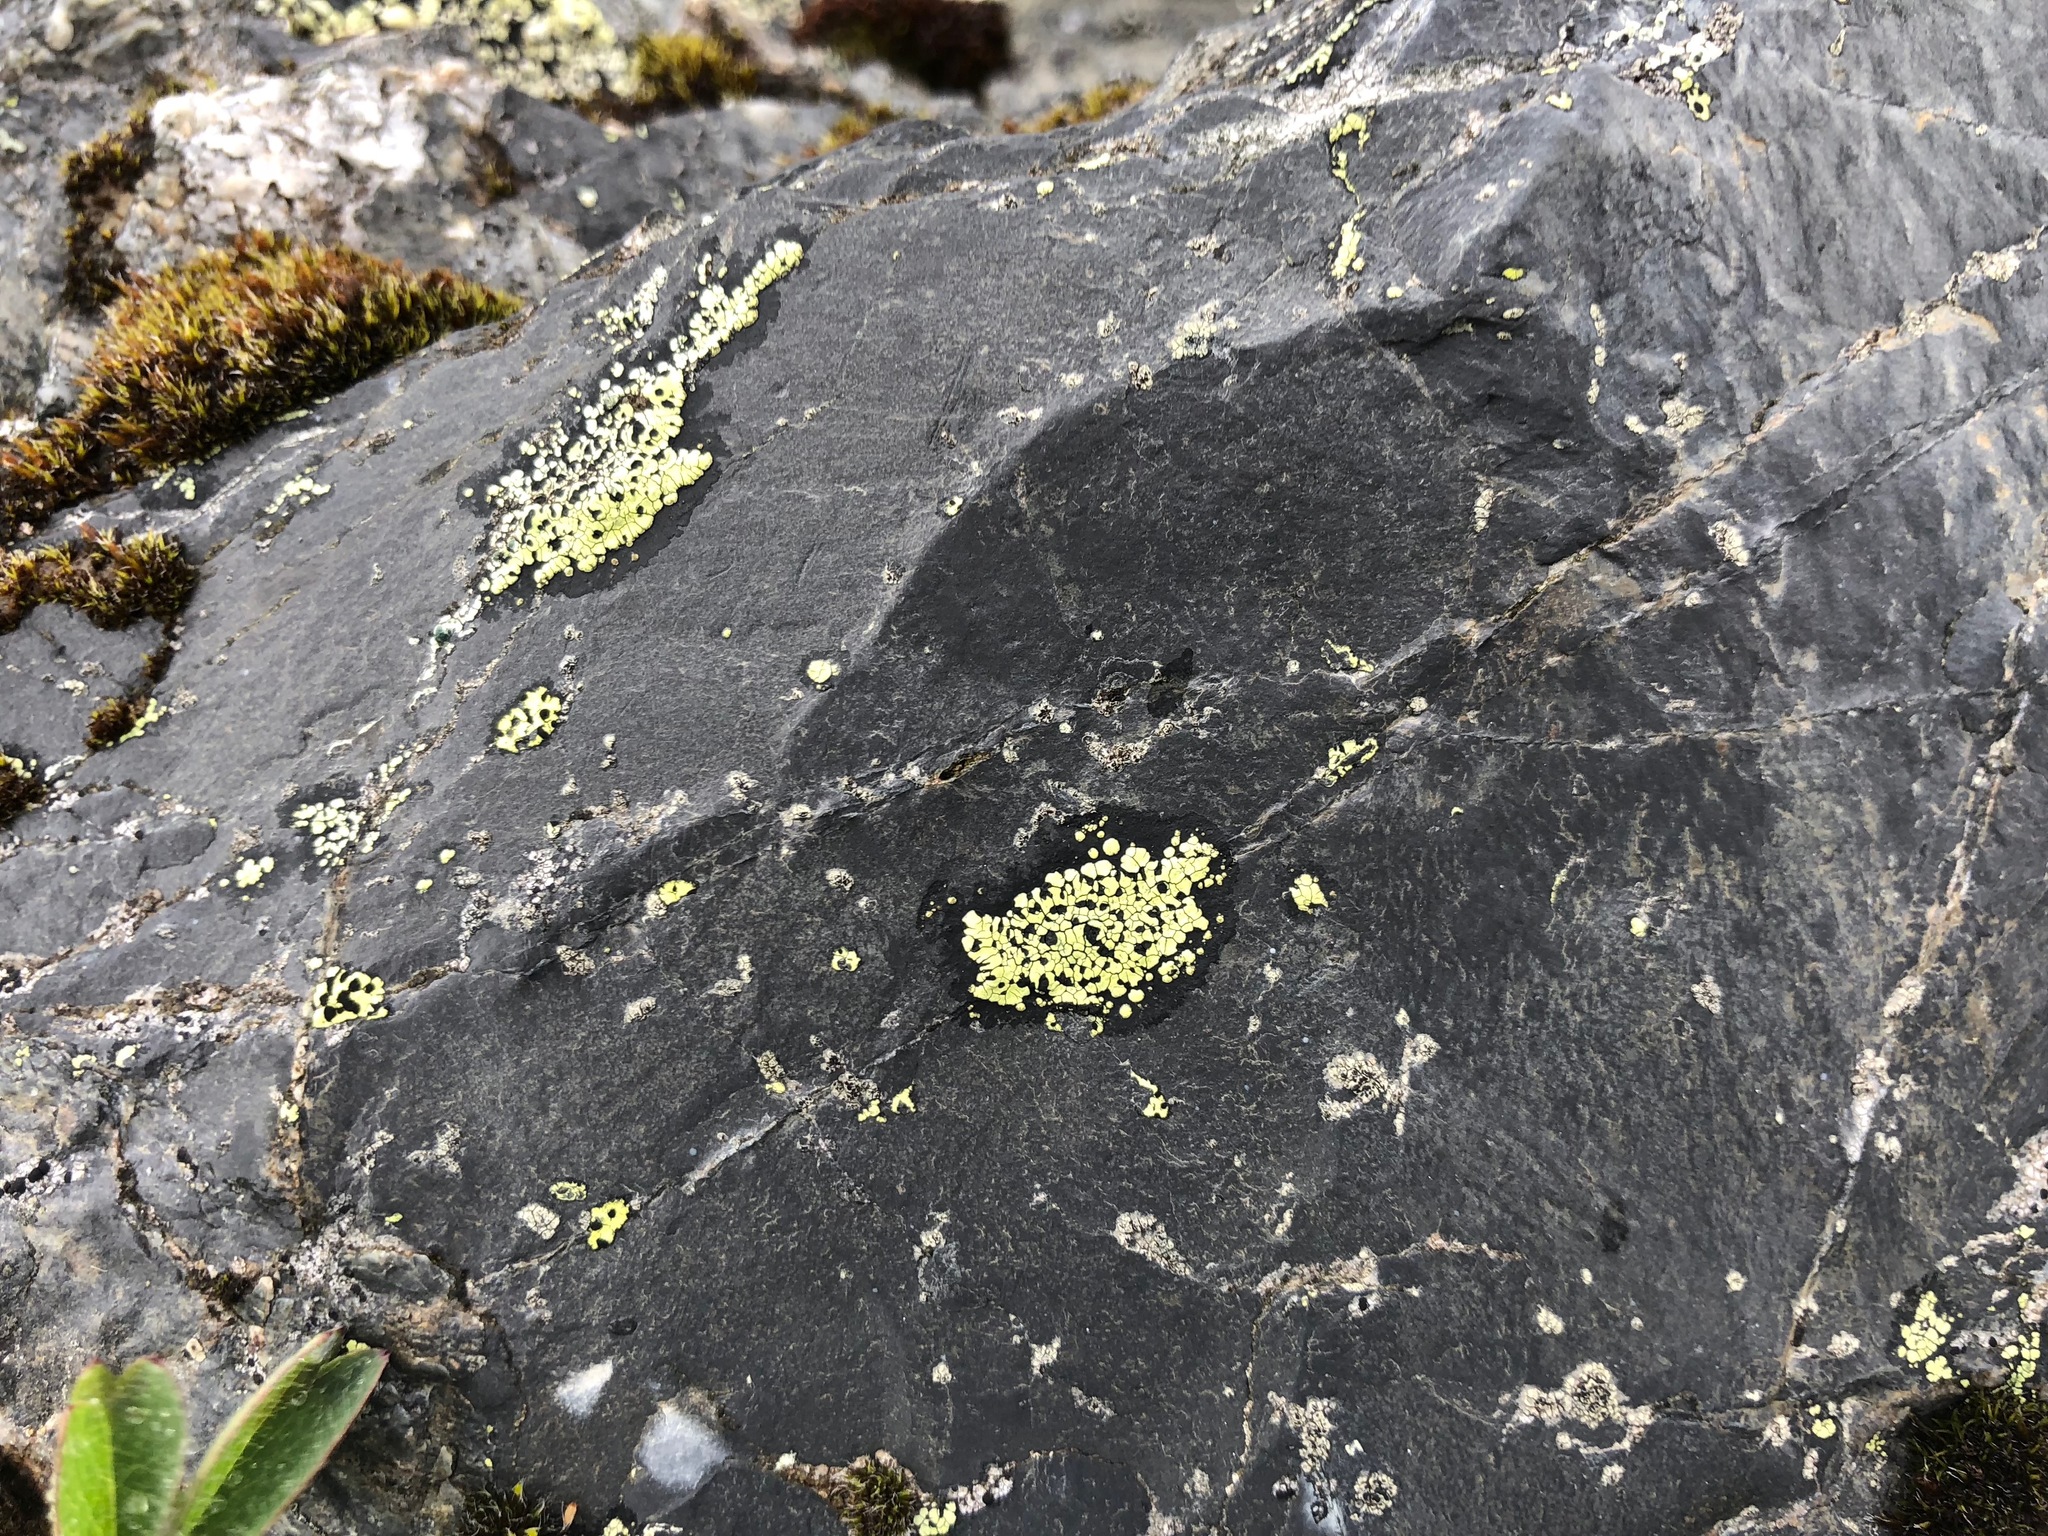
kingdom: Fungi
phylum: Ascomycota
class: Lecanoromycetes
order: Rhizocarpales
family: Rhizocarpaceae
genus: Rhizocarpon
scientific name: Rhizocarpon geographicum
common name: Yellow map lichen
